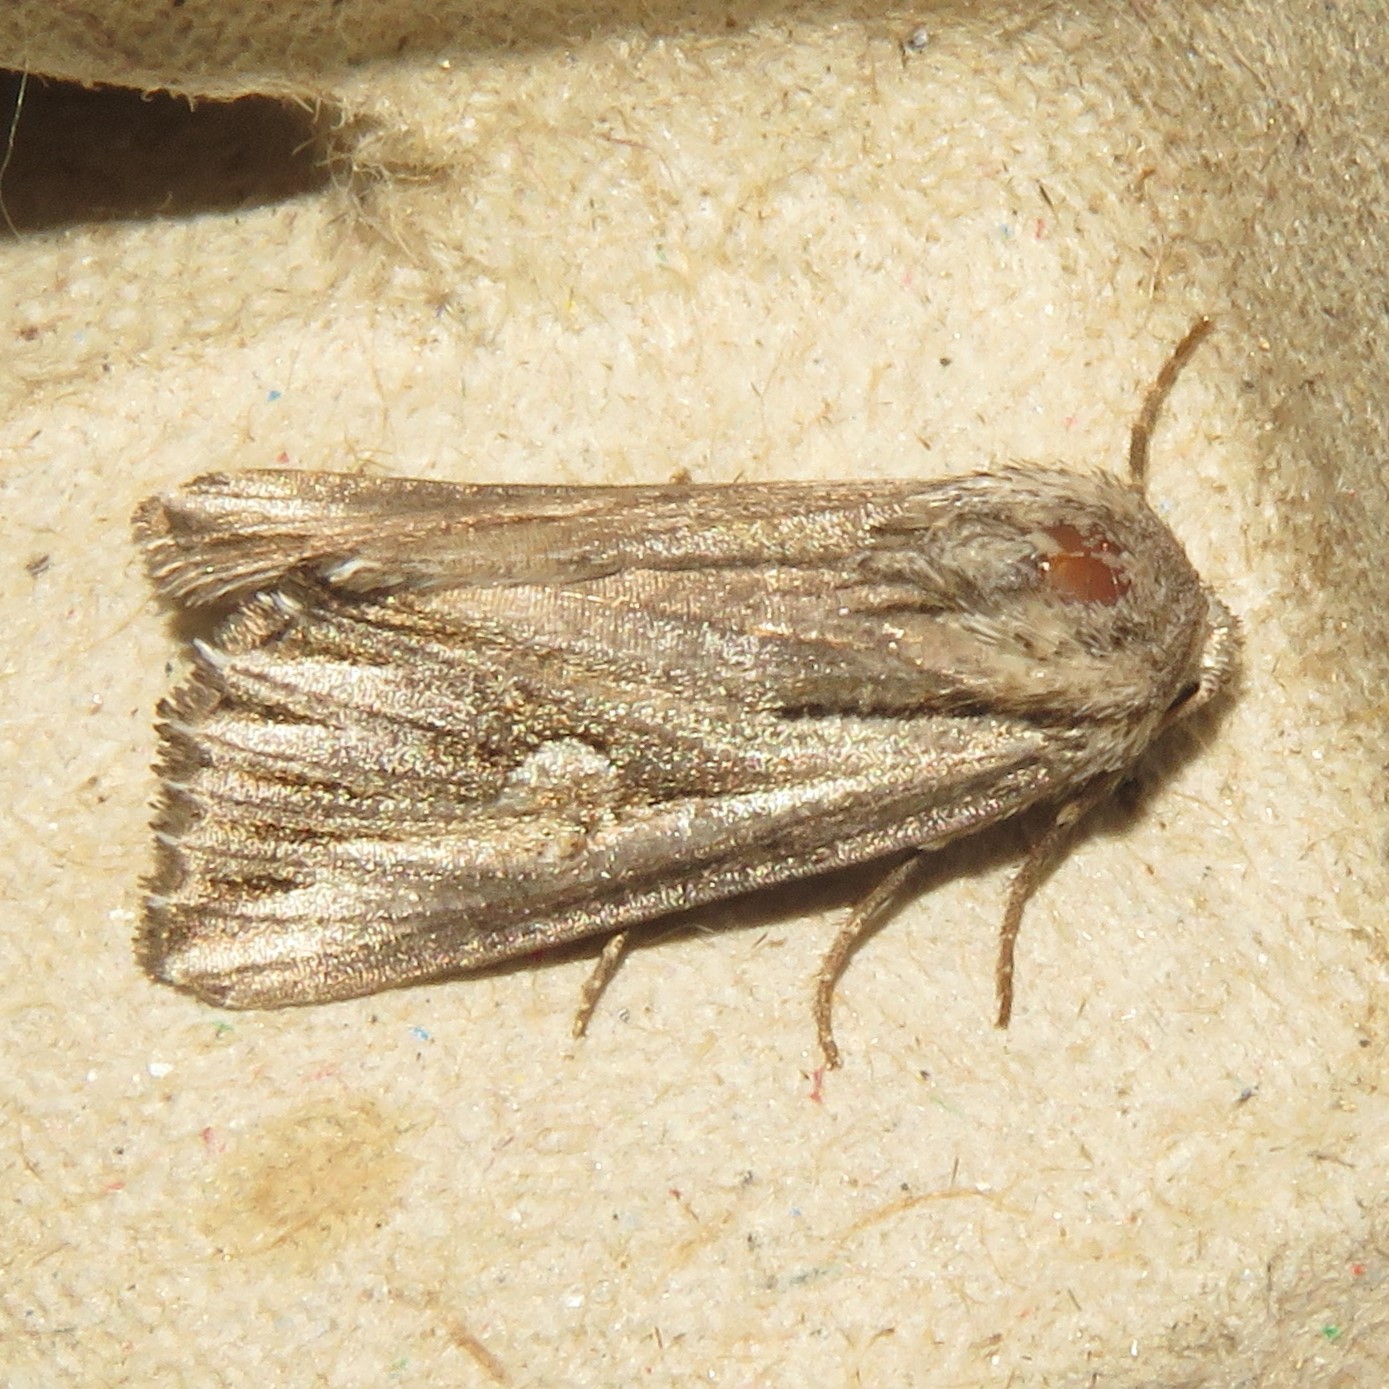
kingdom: Animalia
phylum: Arthropoda
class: Insecta
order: Lepidoptera
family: Noctuidae
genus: Nedra
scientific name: Nedra ramosula
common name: Gray half-spot
